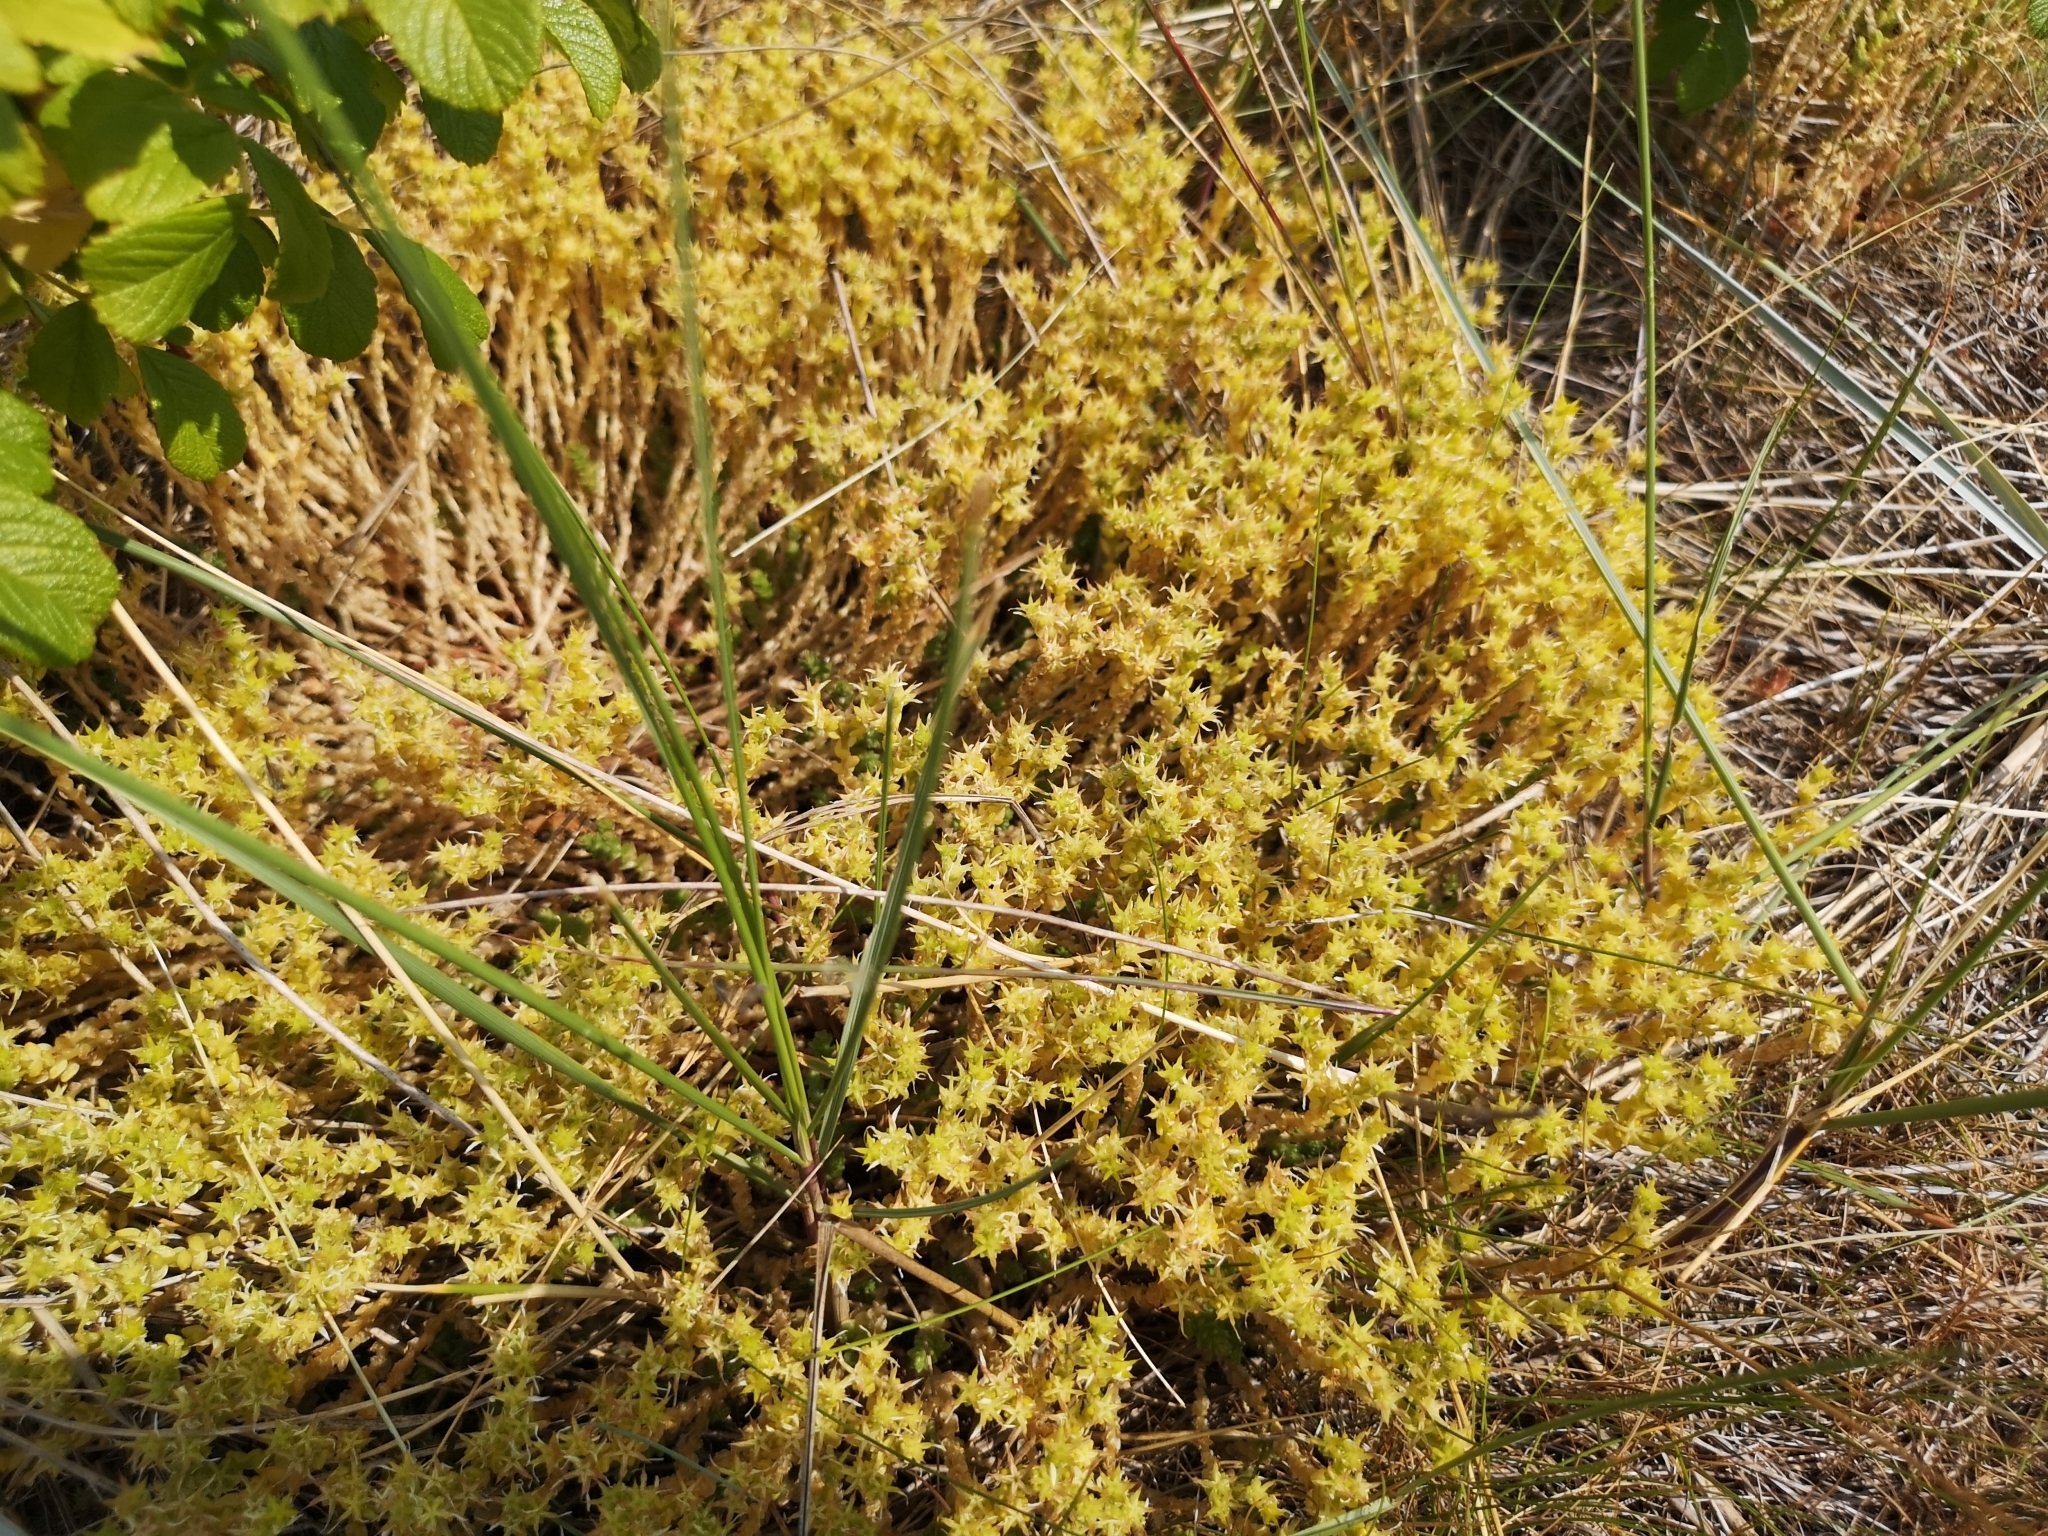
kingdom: Plantae
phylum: Tracheophyta
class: Magnoliopsida
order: Saxifragales
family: Crassulaceae
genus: Sedum
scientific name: Sedum acre
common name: Biting stonecrop
